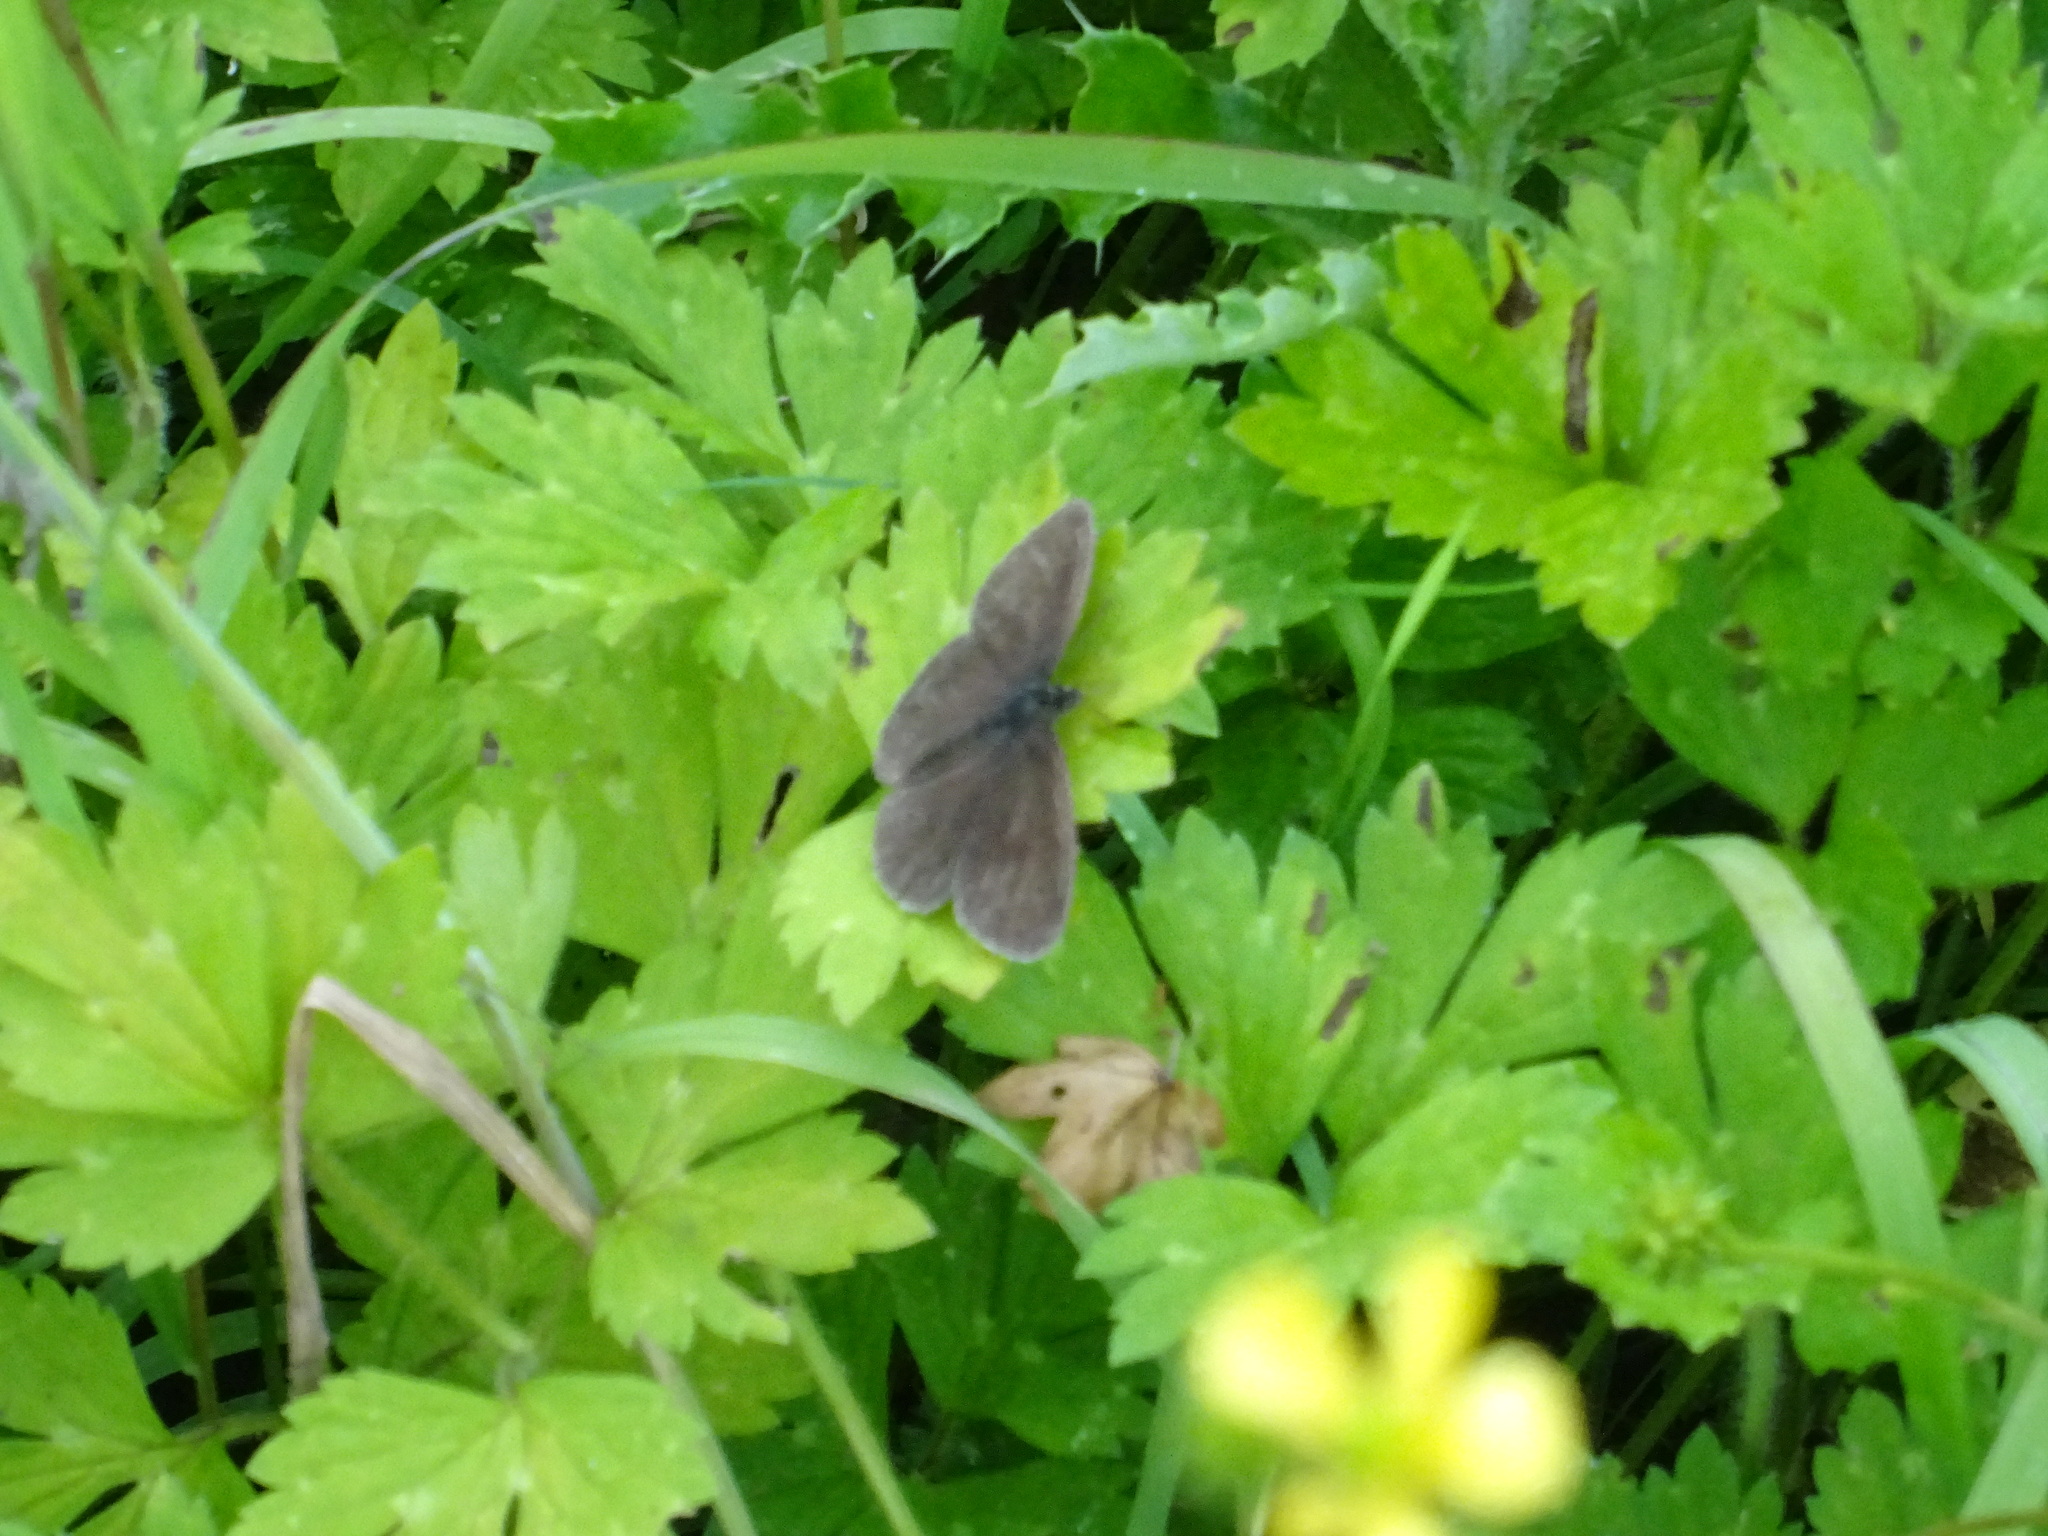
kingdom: Animalia
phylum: Arthropoda
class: Insecta
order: Lepidoptera
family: Nymphalidae
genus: Aphantopus
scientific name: Aphantopus hyperantus
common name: Ringlet
